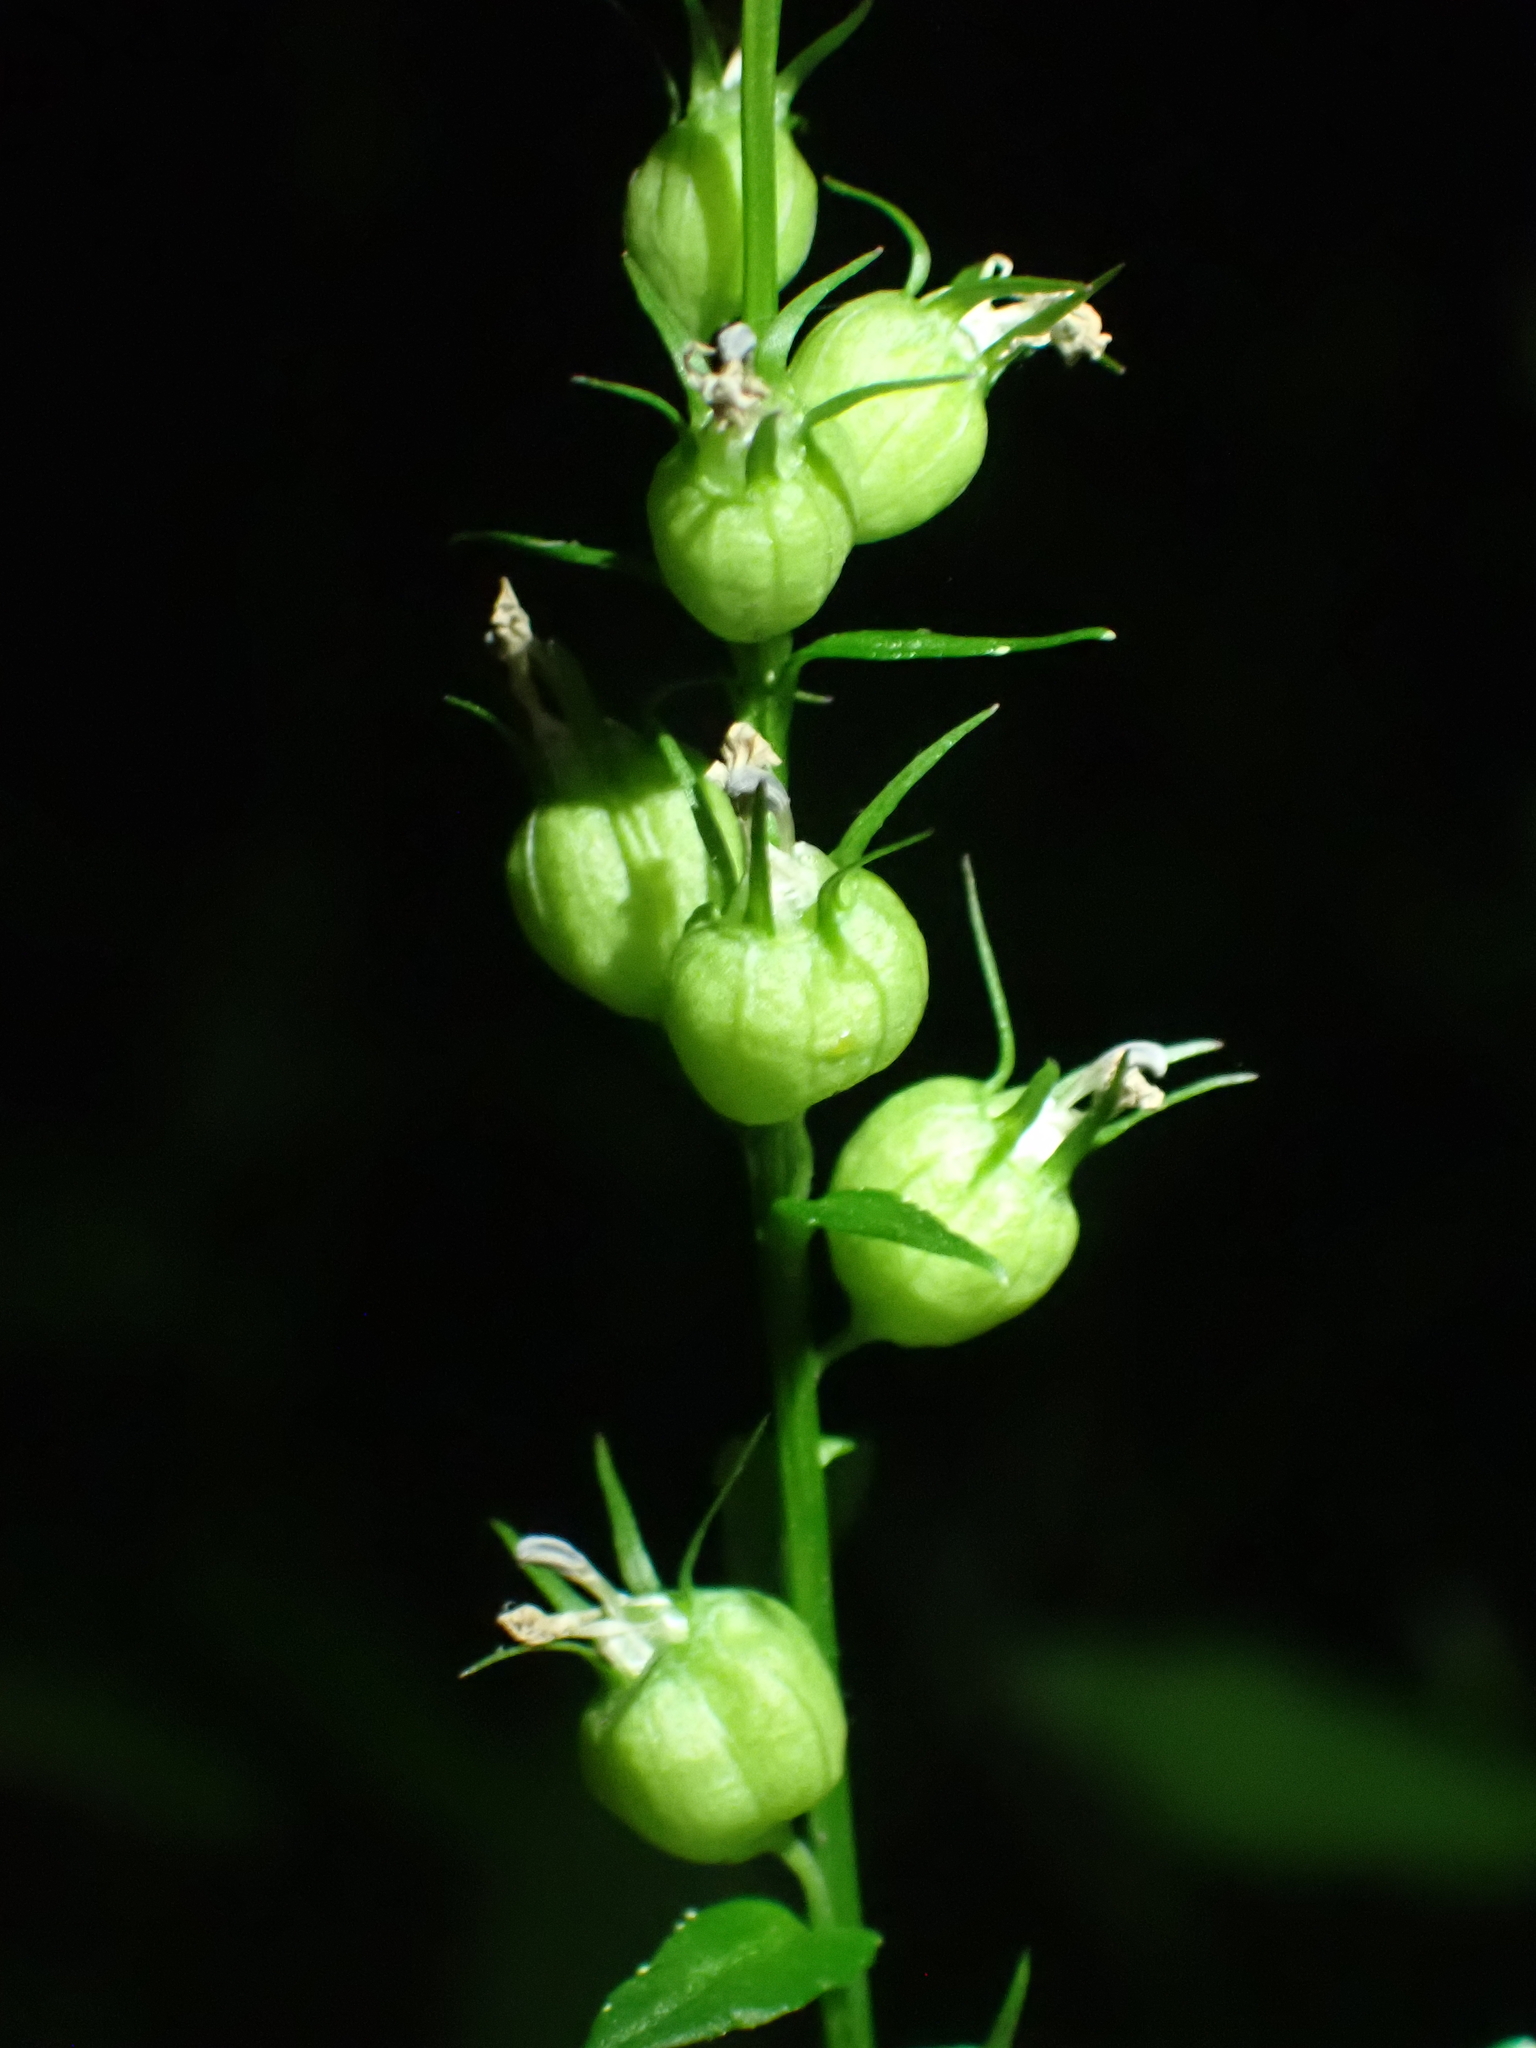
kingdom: Plantae
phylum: Tracheophyta
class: Magnoliopsida
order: Asterales
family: Campanulaceae
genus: Lobelia
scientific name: Lobelia inflata
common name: Indian tobacco
